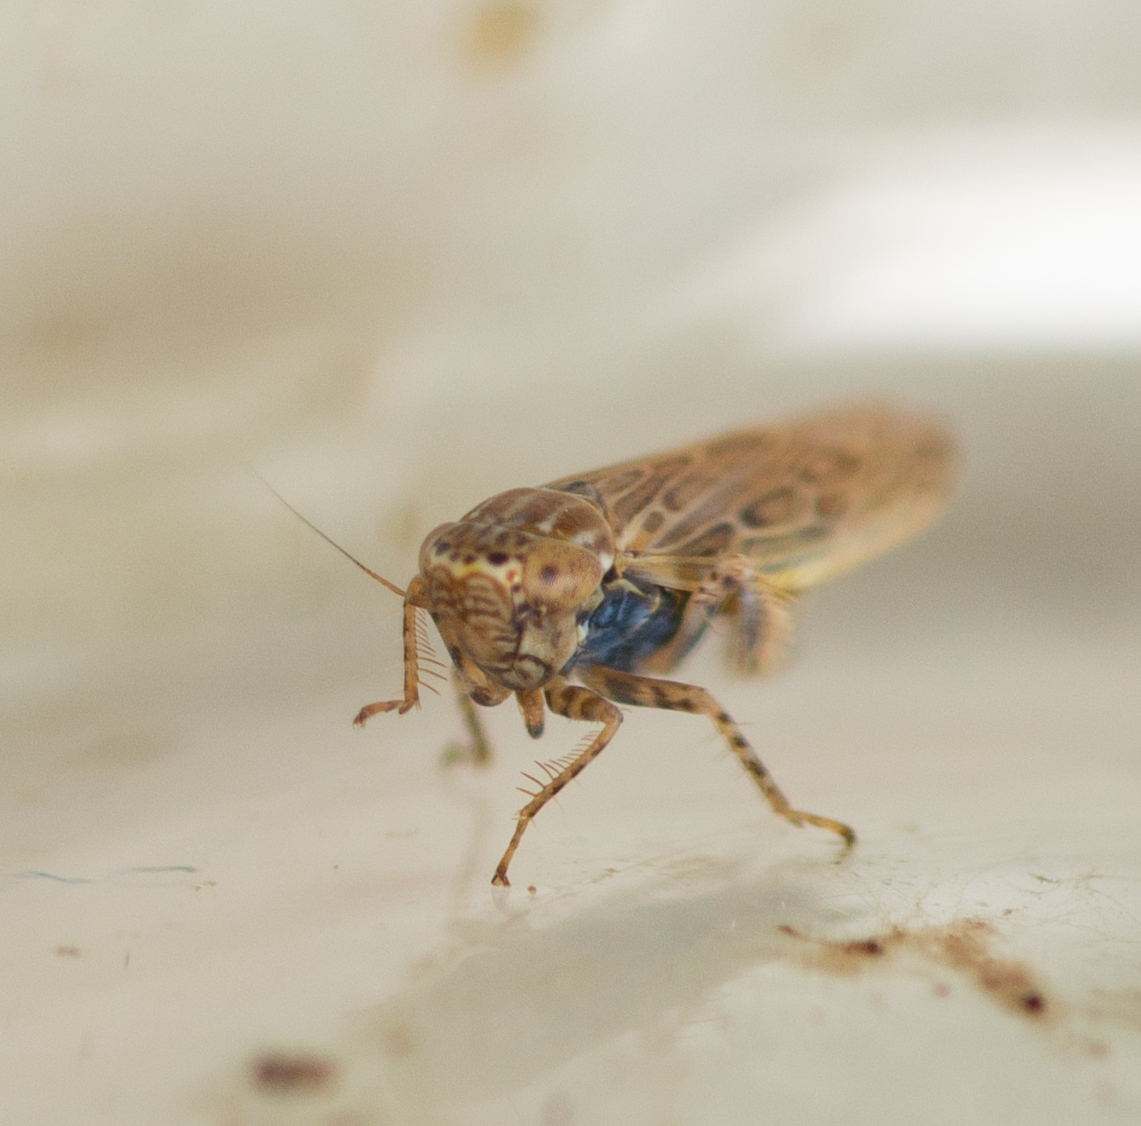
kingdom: Animalia
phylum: Arthropoda
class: Insecta
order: Hemiptera
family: Cicadellidae
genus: Graminella
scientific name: Graminella sonora
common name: Lesser lawn leafhopper
